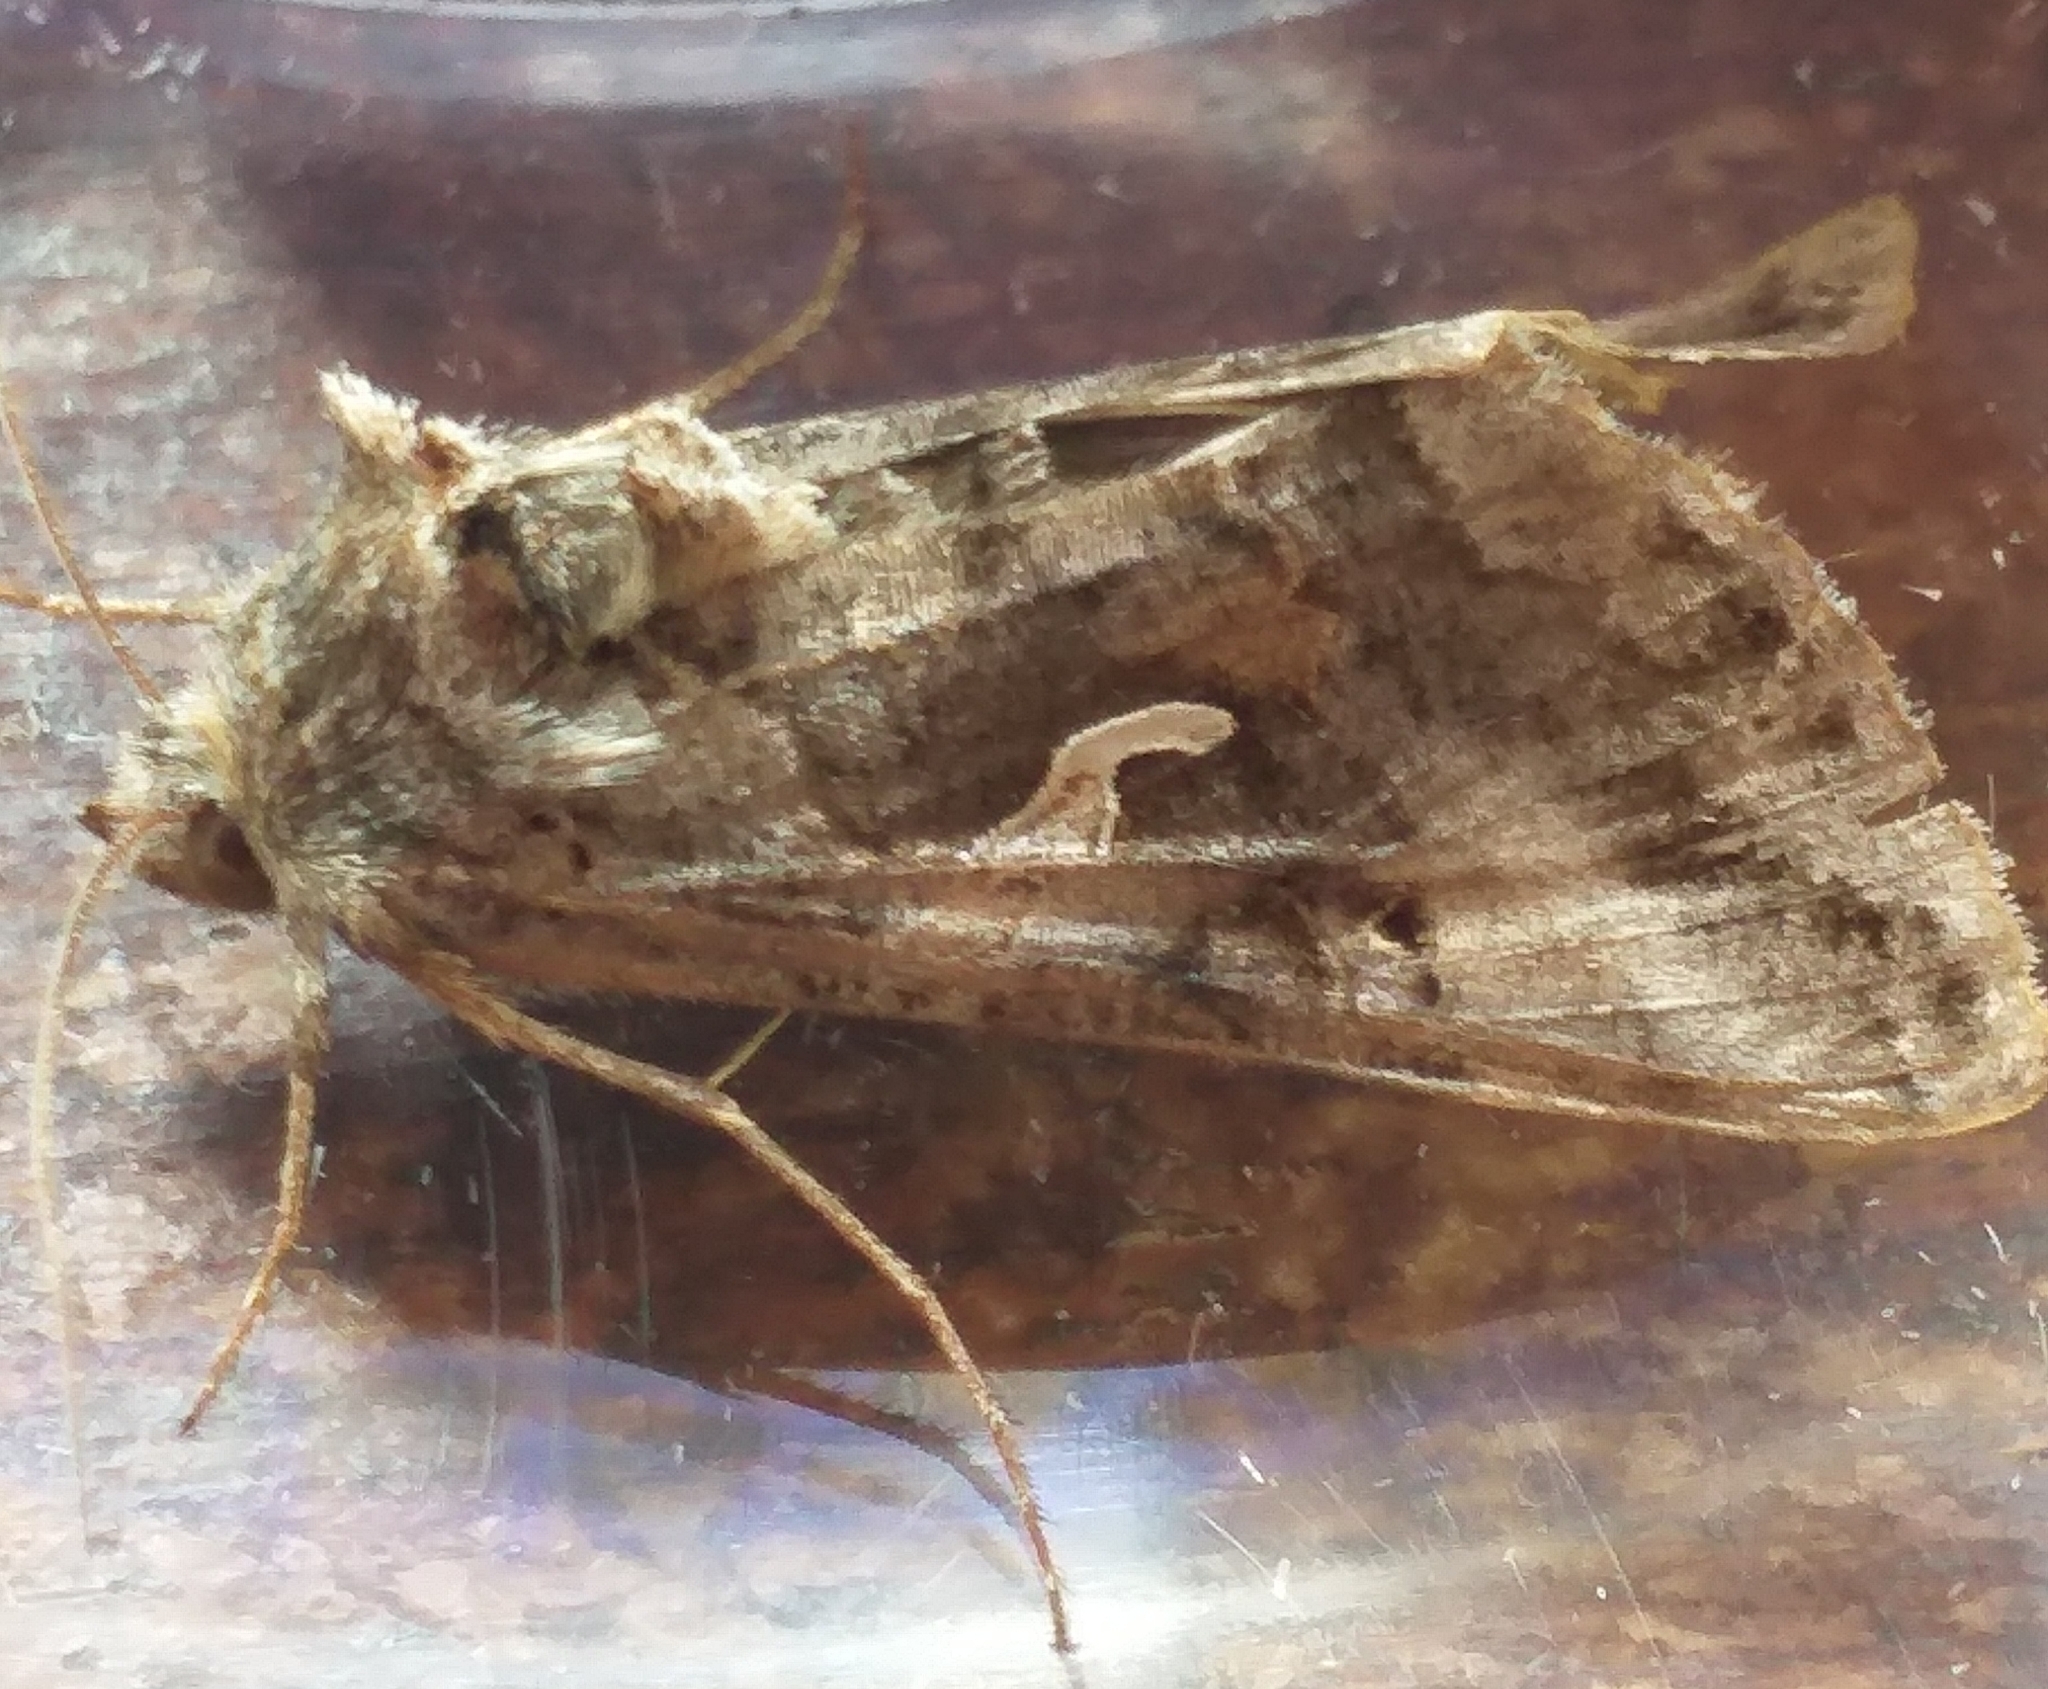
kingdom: Animalia
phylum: Arthropoda
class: Insecta
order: Lepidoptera
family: Noctuidae
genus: Autographa
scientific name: Autographa gamma
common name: Silver y
